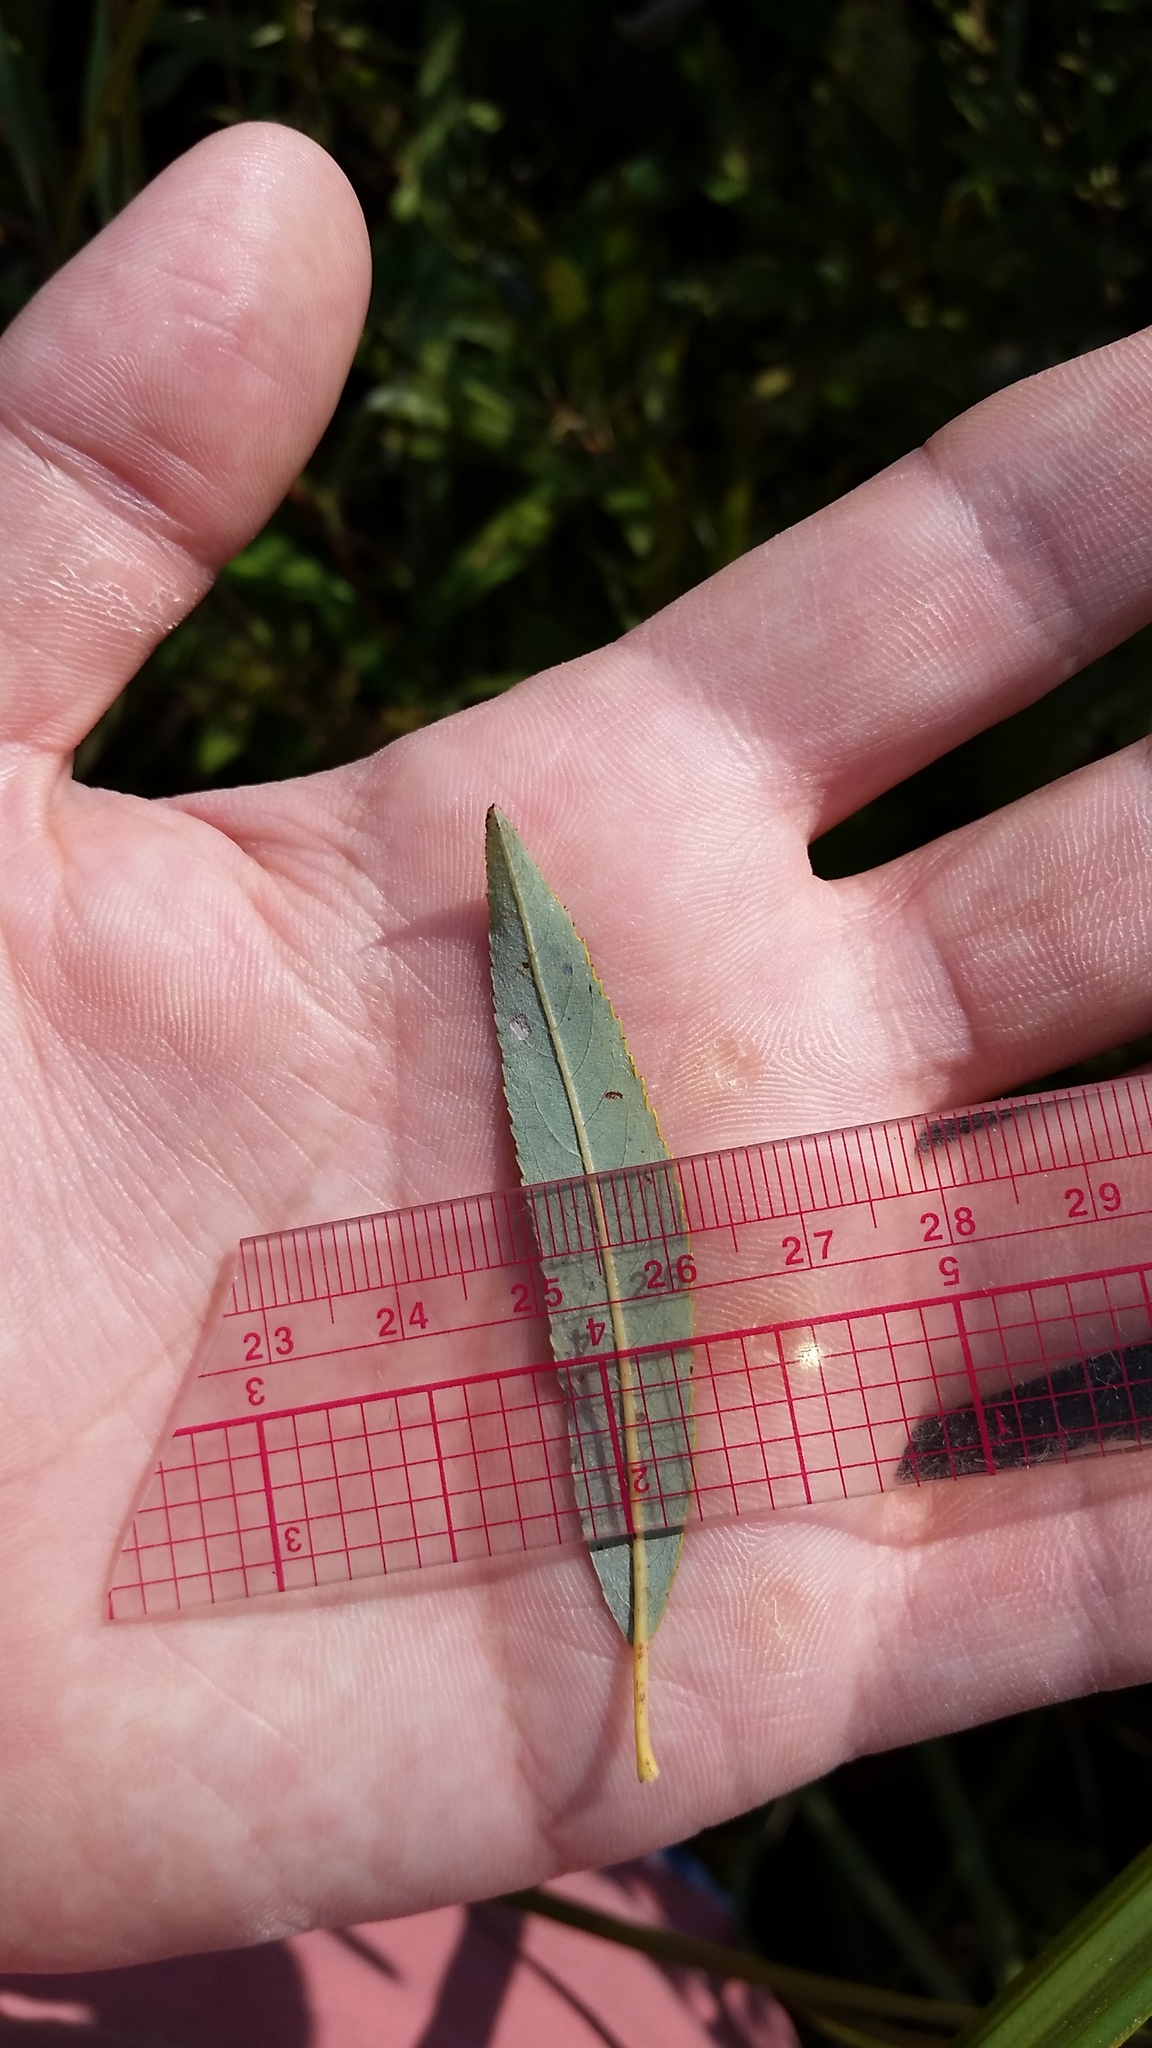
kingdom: Plantae
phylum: Tracheophyta
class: Magnoliopsida
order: Malpighiales
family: Salicaceae
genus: Salix
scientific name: Salix petiolaris
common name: Slender willow
